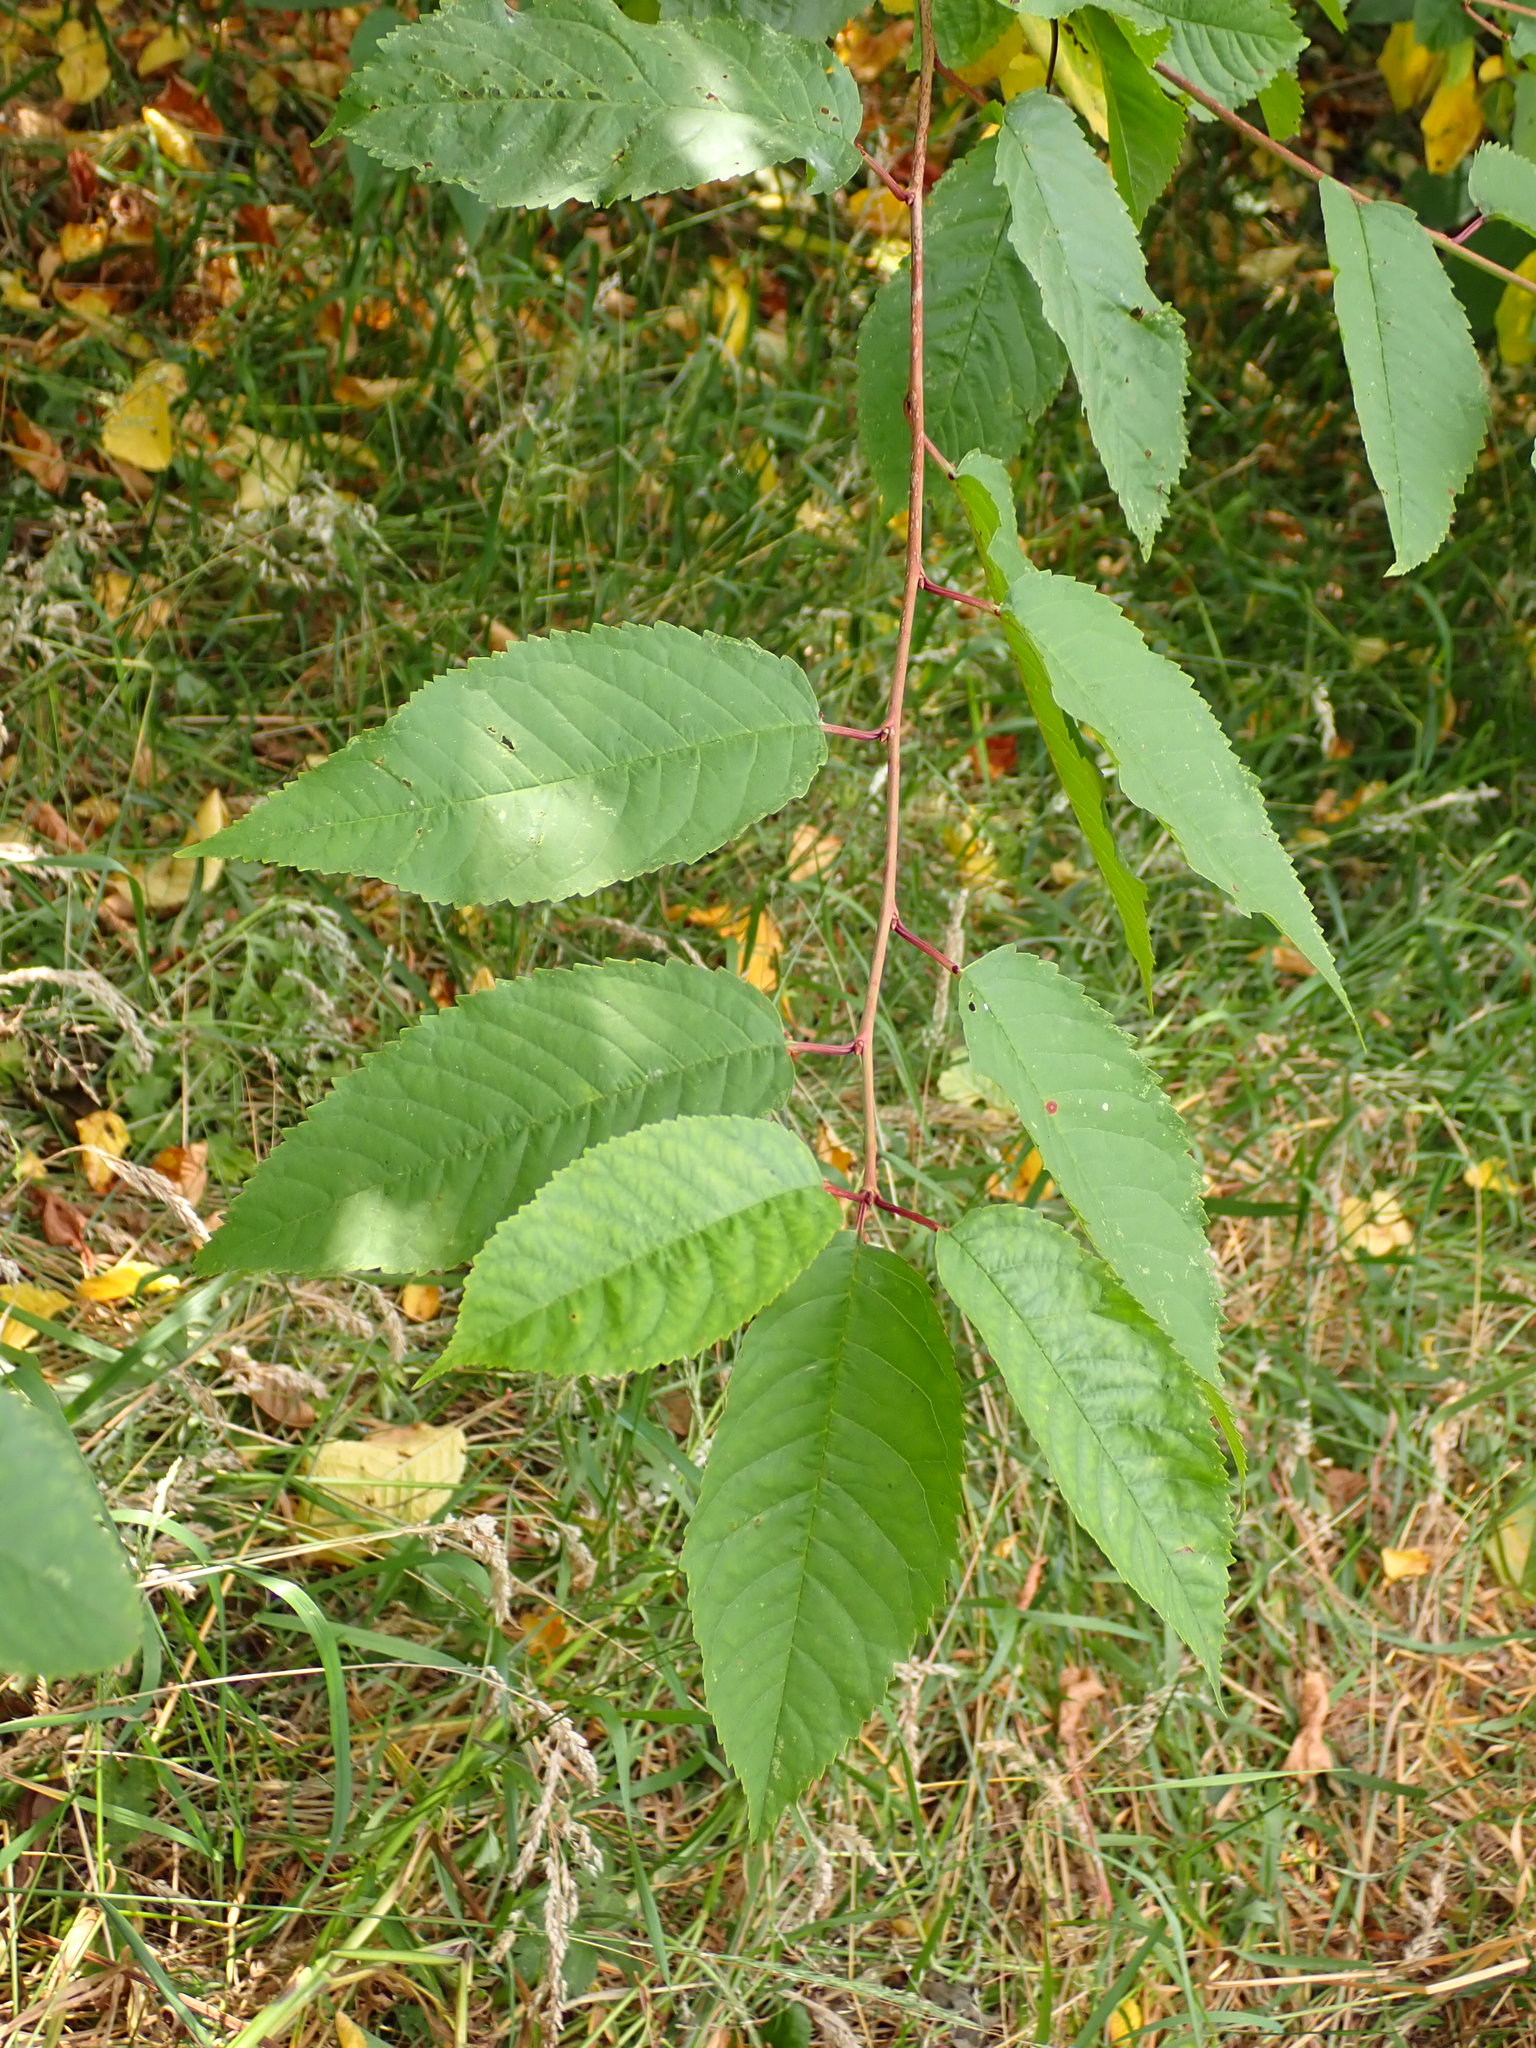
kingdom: Plantae
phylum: Tracheophyta
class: Magnoliopsida
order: Rosales
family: Rosaceae
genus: Prunus
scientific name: Prunus avium
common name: Sweet cherry
